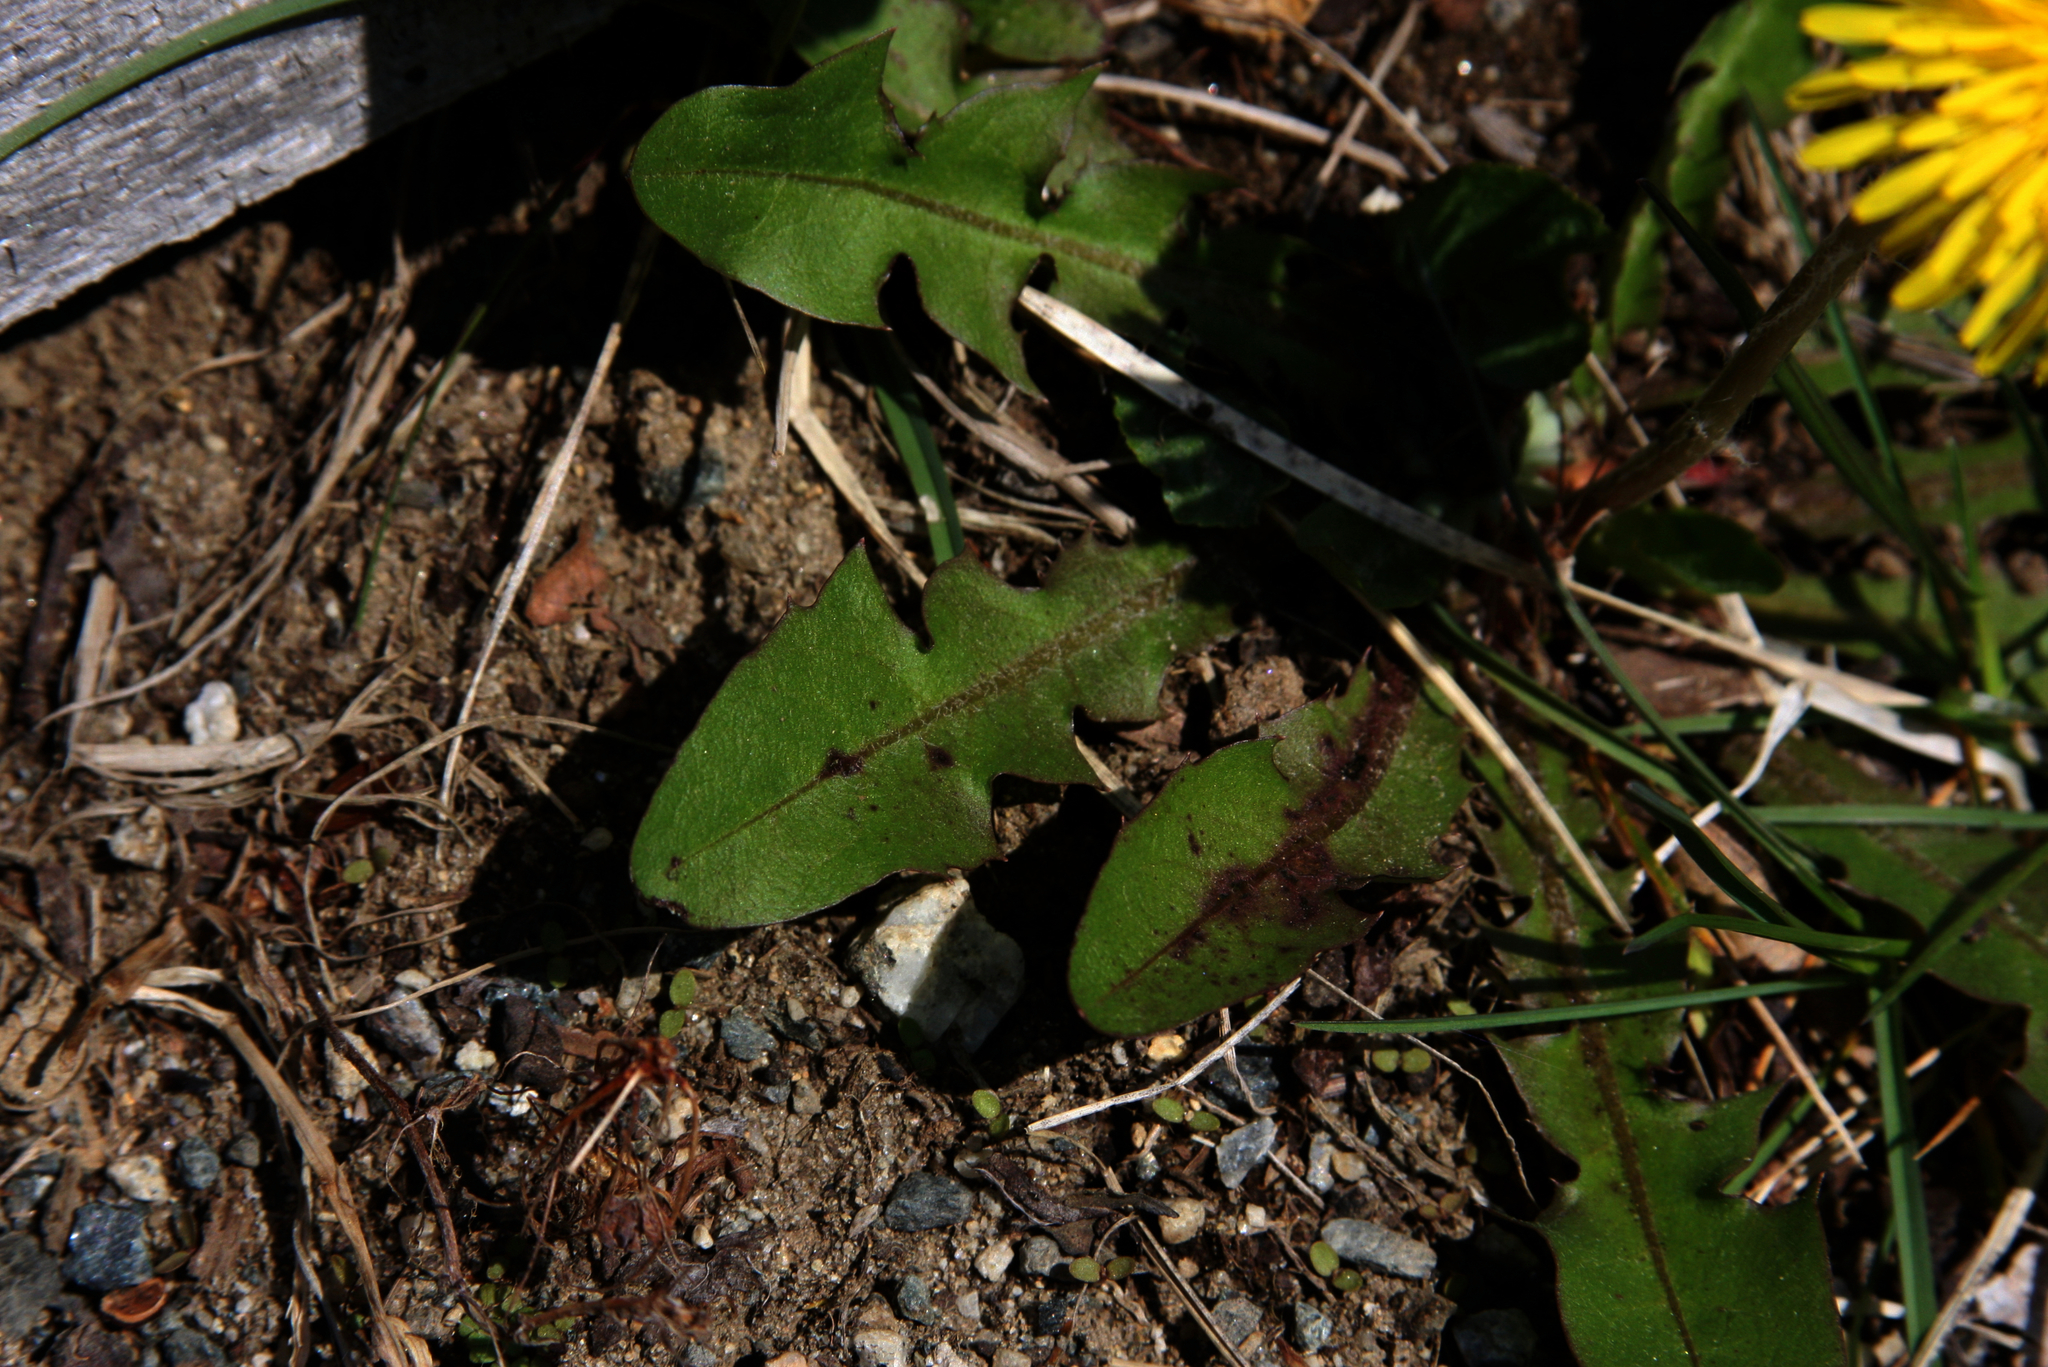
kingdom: Plantae
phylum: Tracheophyta
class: Magnoliopsida
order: Asterales
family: Asteraceae
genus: Taraxacum
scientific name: Taraxacum officinale
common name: Common dandelion
